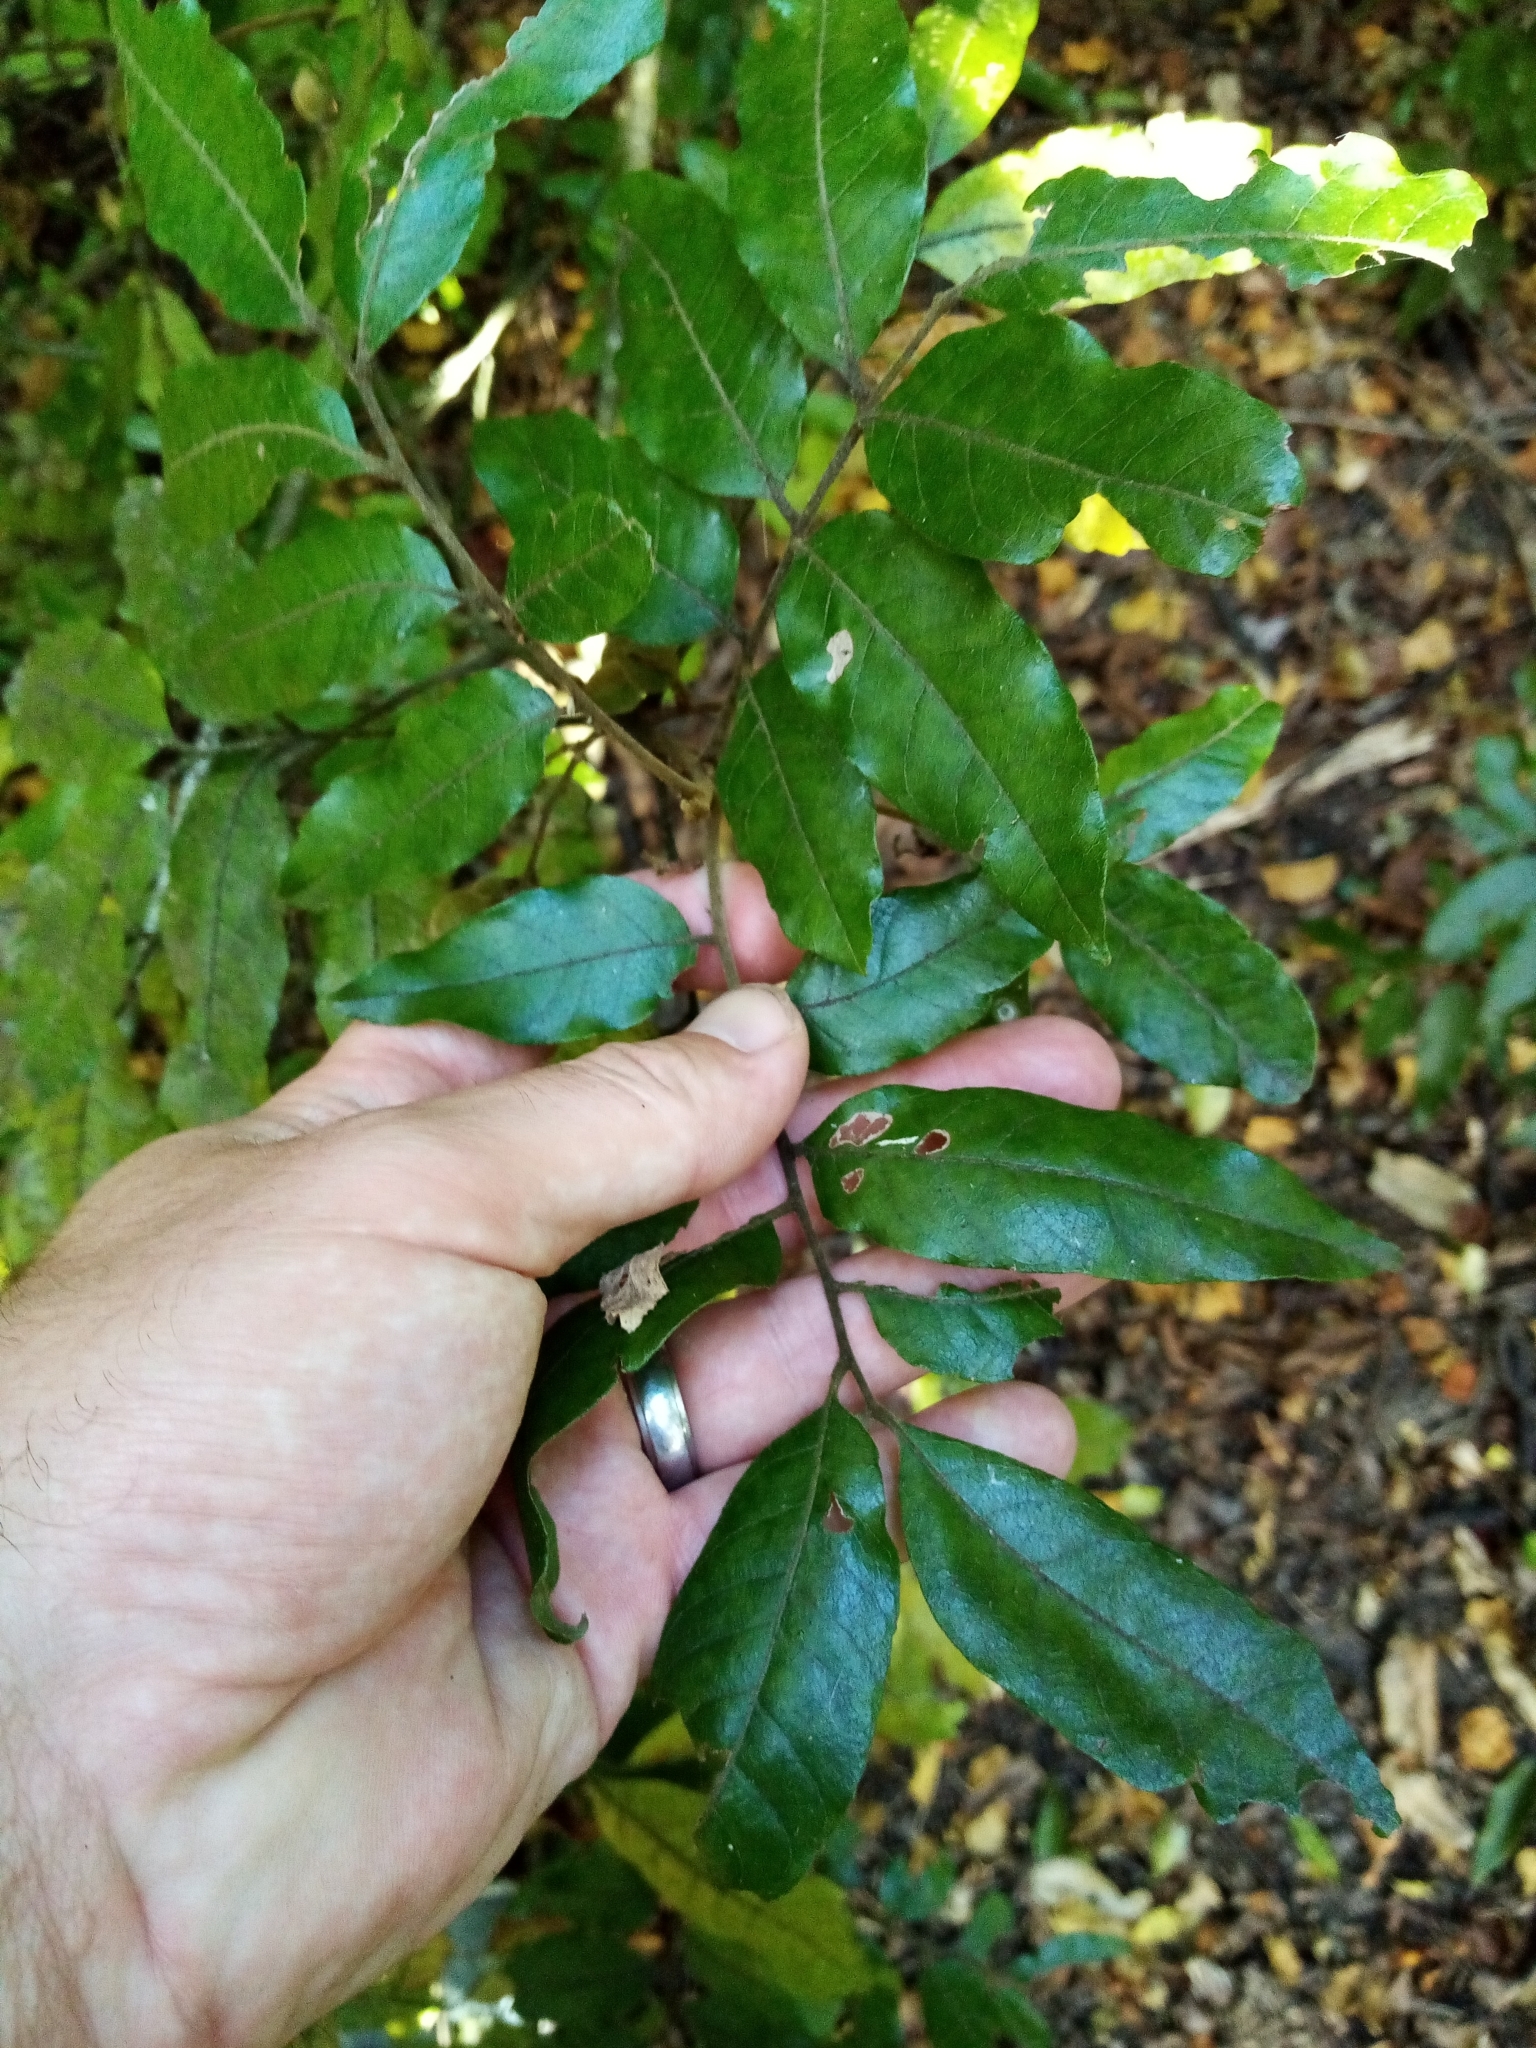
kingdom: Plantae
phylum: Tracheophyta
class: Magnoliopsida
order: Sapindales
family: Sapindaceae
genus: Alectryon
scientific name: Alectryon excelsus
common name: Three kings titoki
